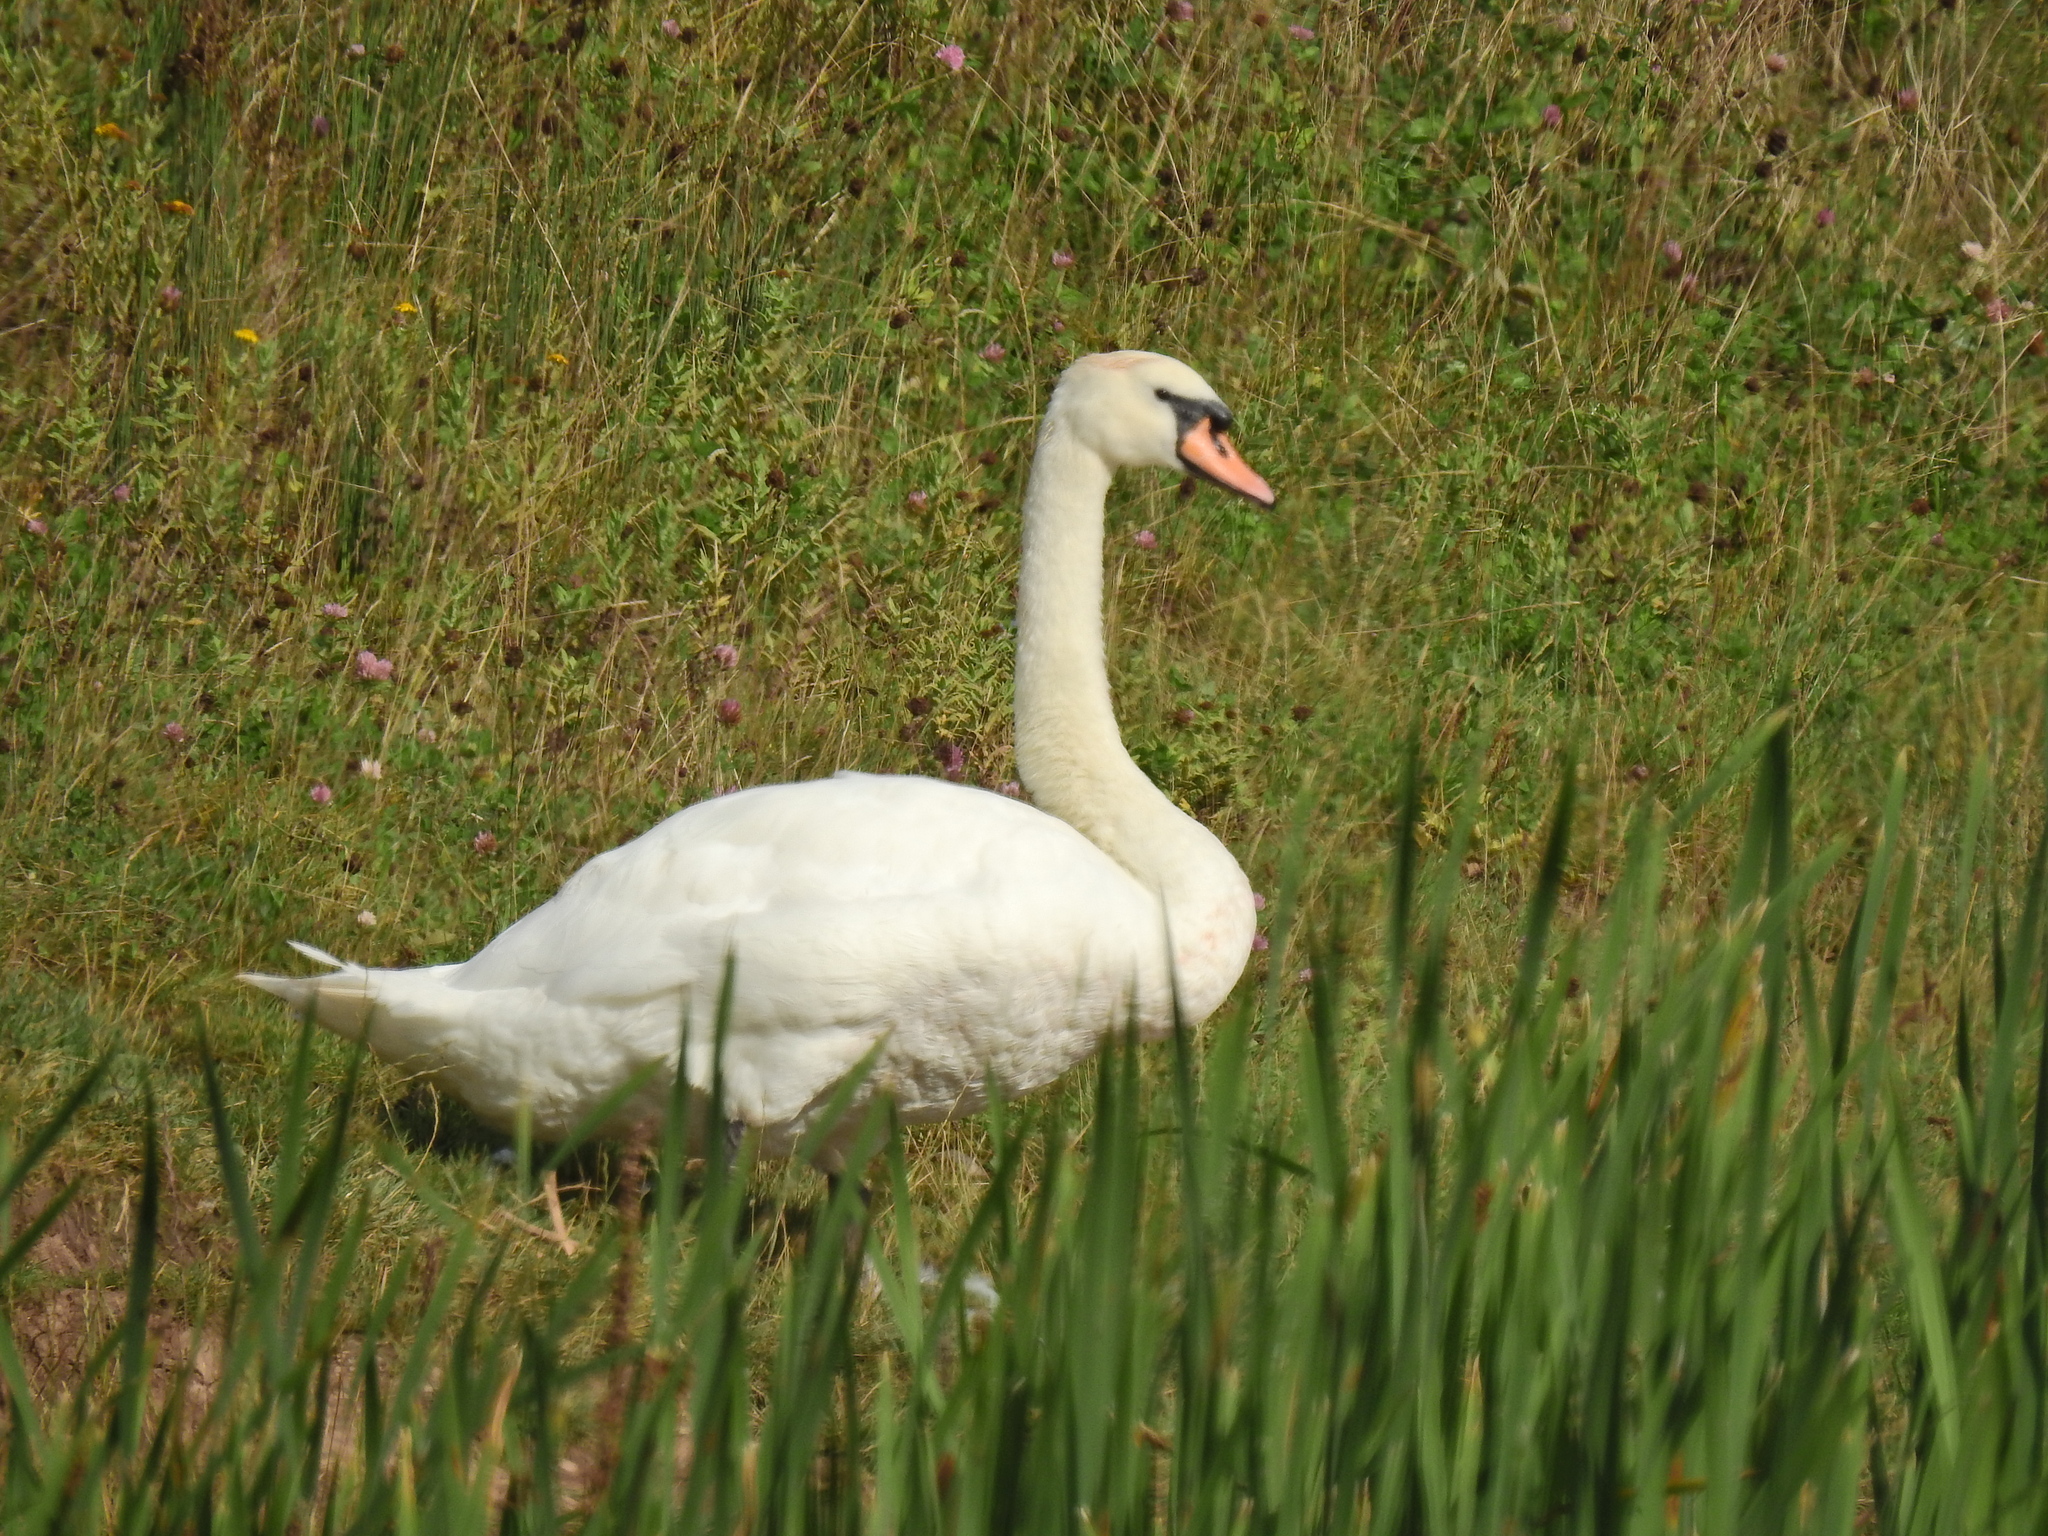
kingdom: Animalia
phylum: Chordata
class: Aves
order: Anseriformes
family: Anatidae
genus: Cygnus
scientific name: Cygnus olor
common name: Mute swan
